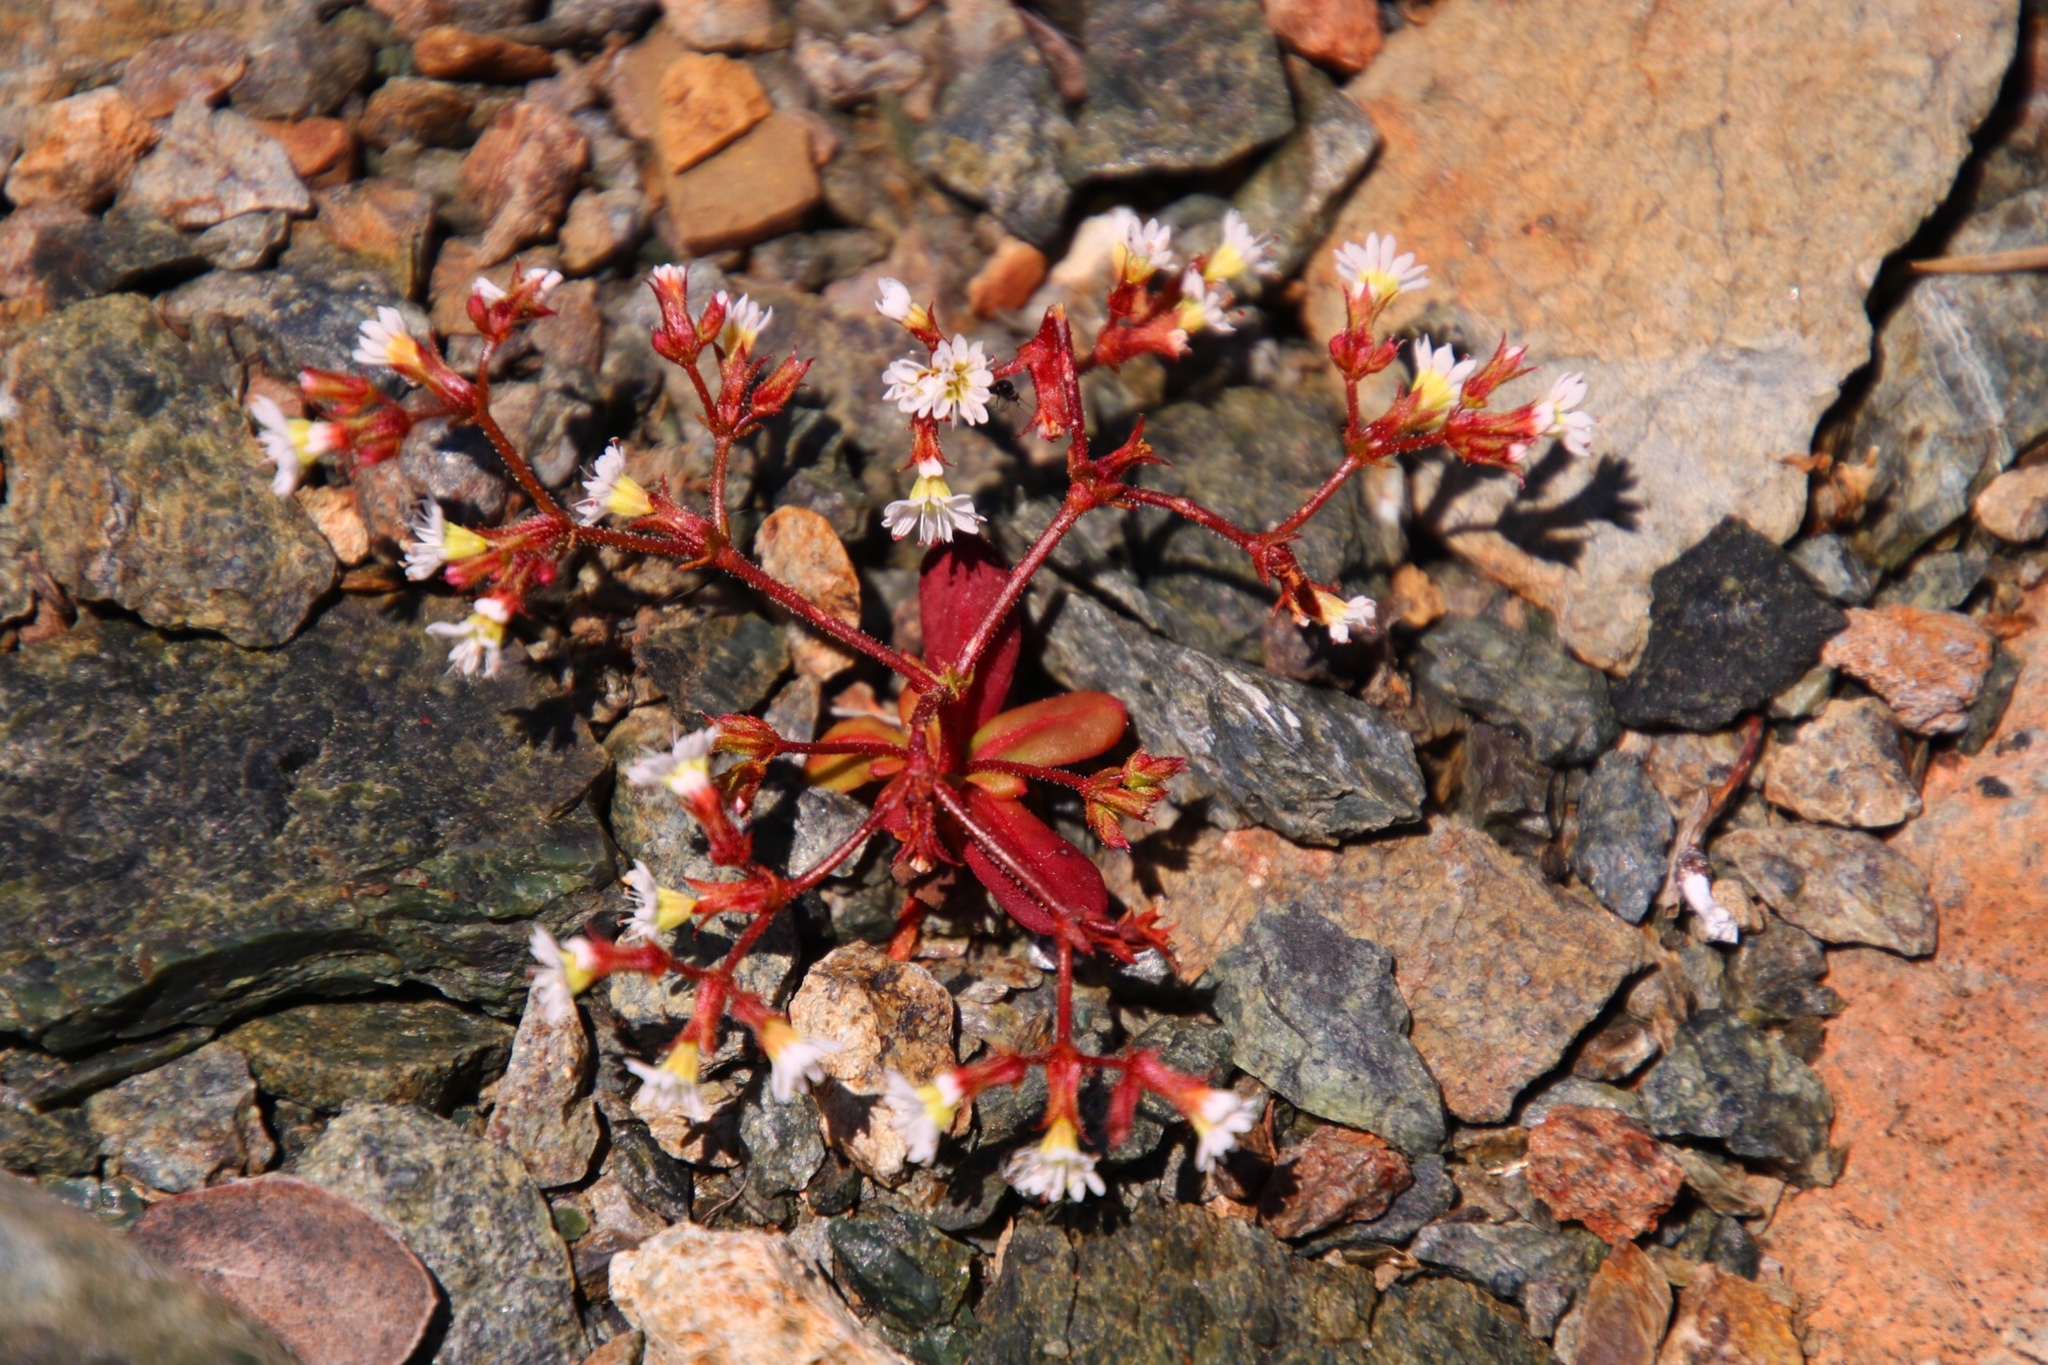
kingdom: Plantae
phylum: Tracheophyta
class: Magnoliopsida
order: Caryophyllales
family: Polygonaceae
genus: Systenotheca
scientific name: Systenotheca vortriedei
